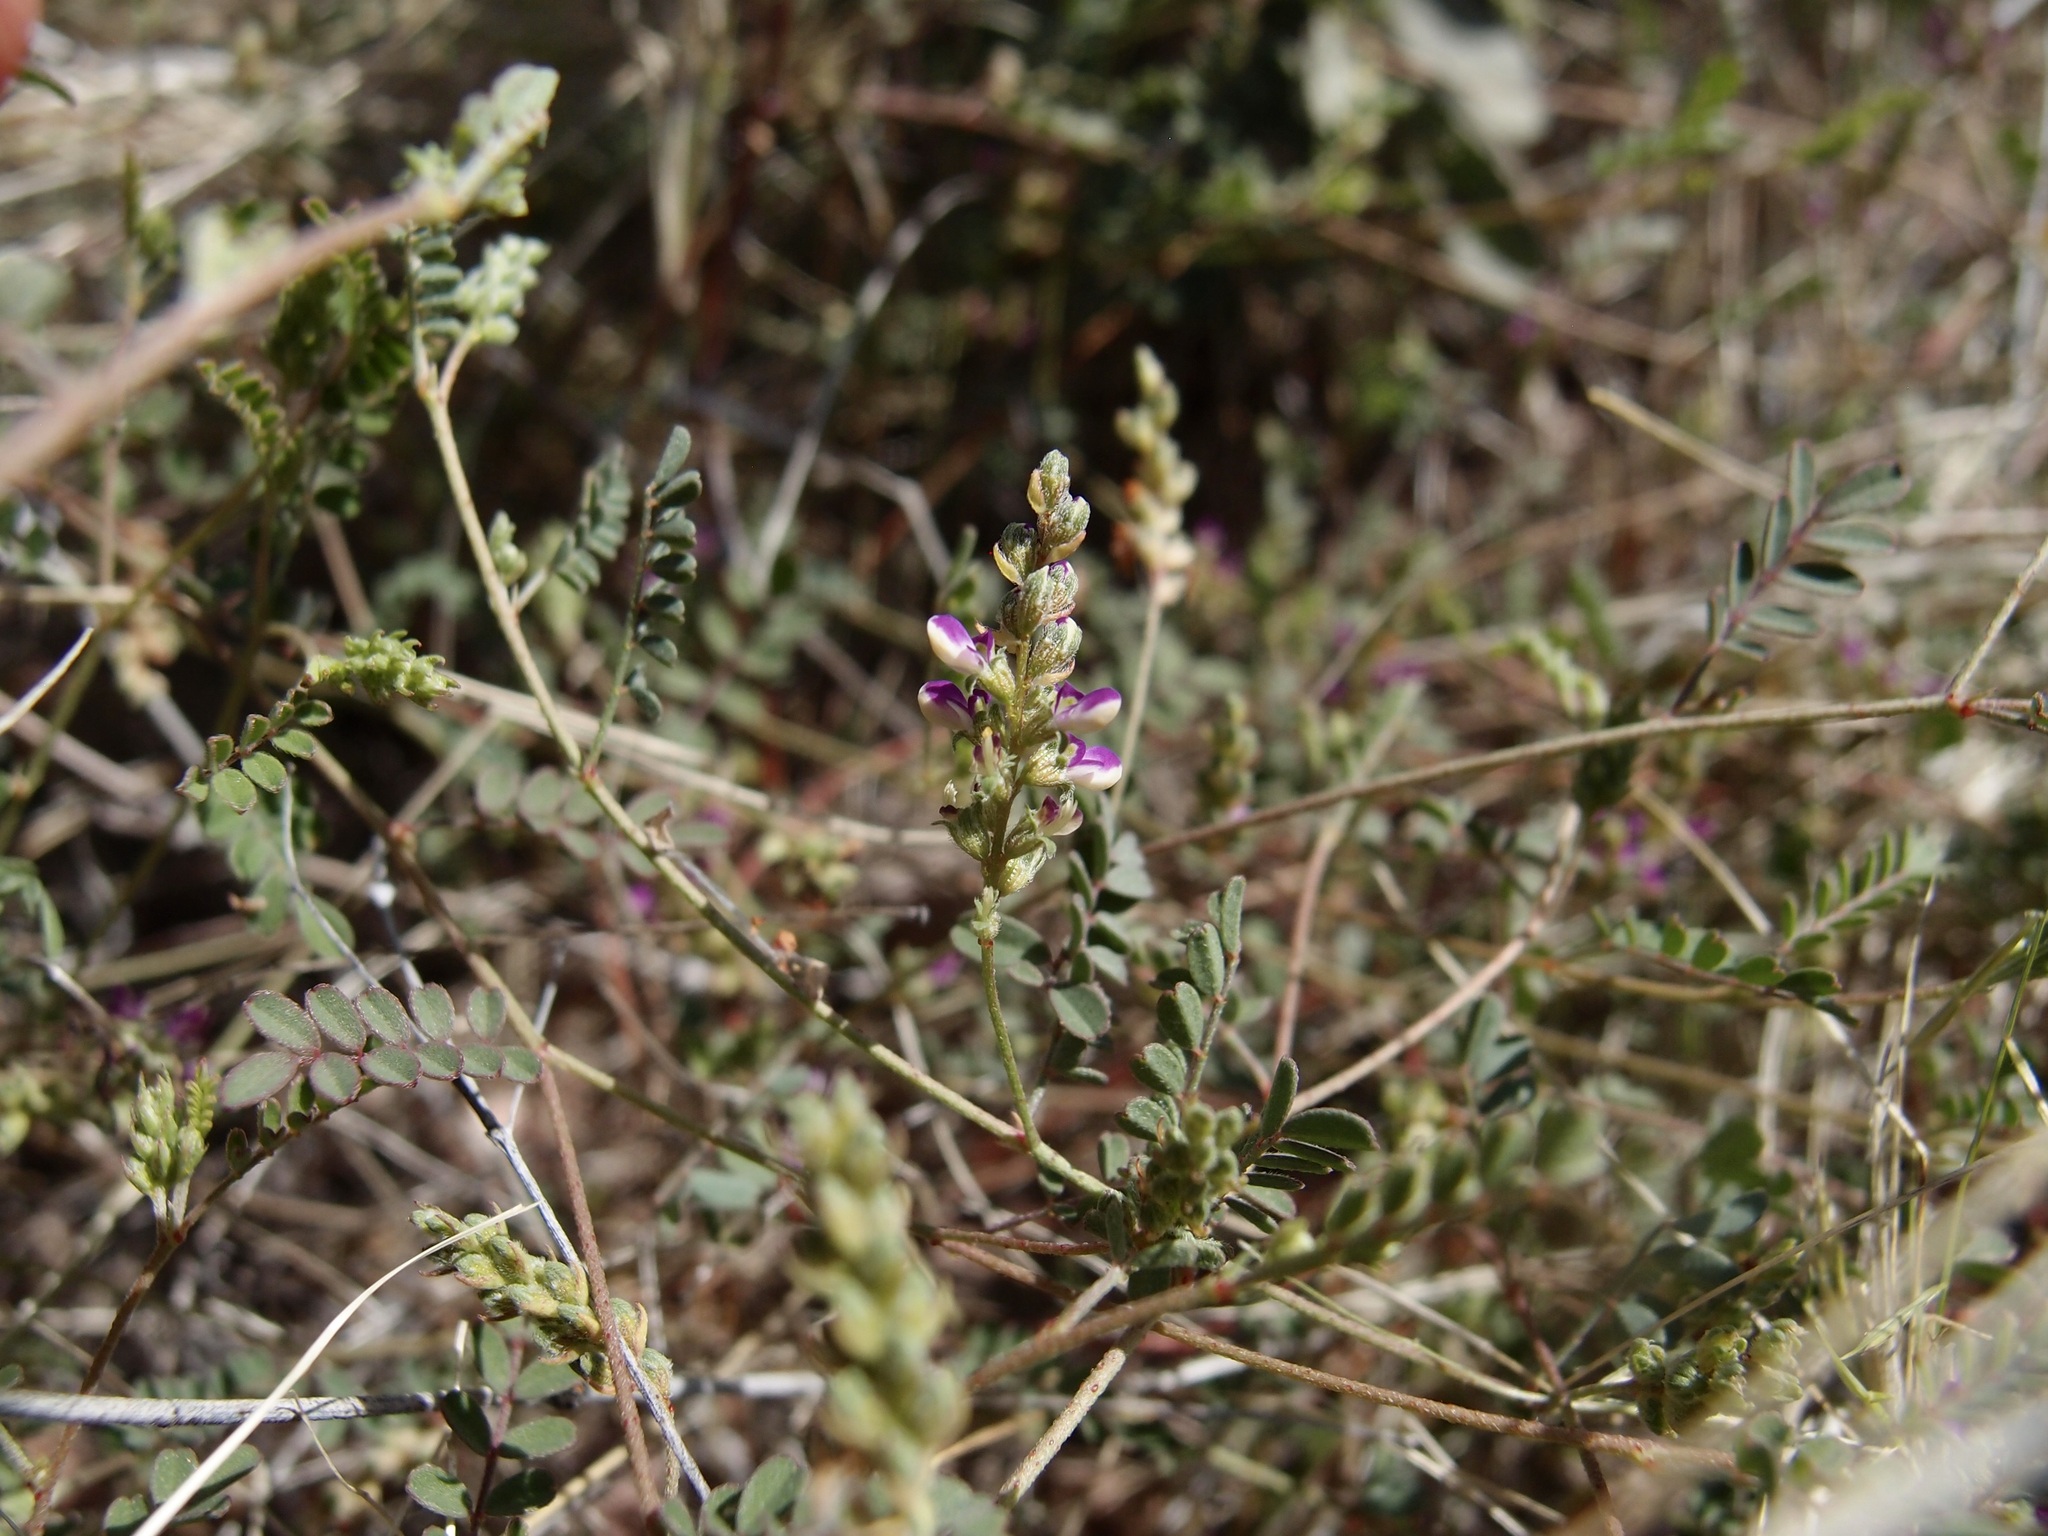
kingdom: Plantae
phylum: Tracheophyta
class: Magnoliopsida
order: Fabales
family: Fabaceae
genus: Marina
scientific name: Marina evanescens
